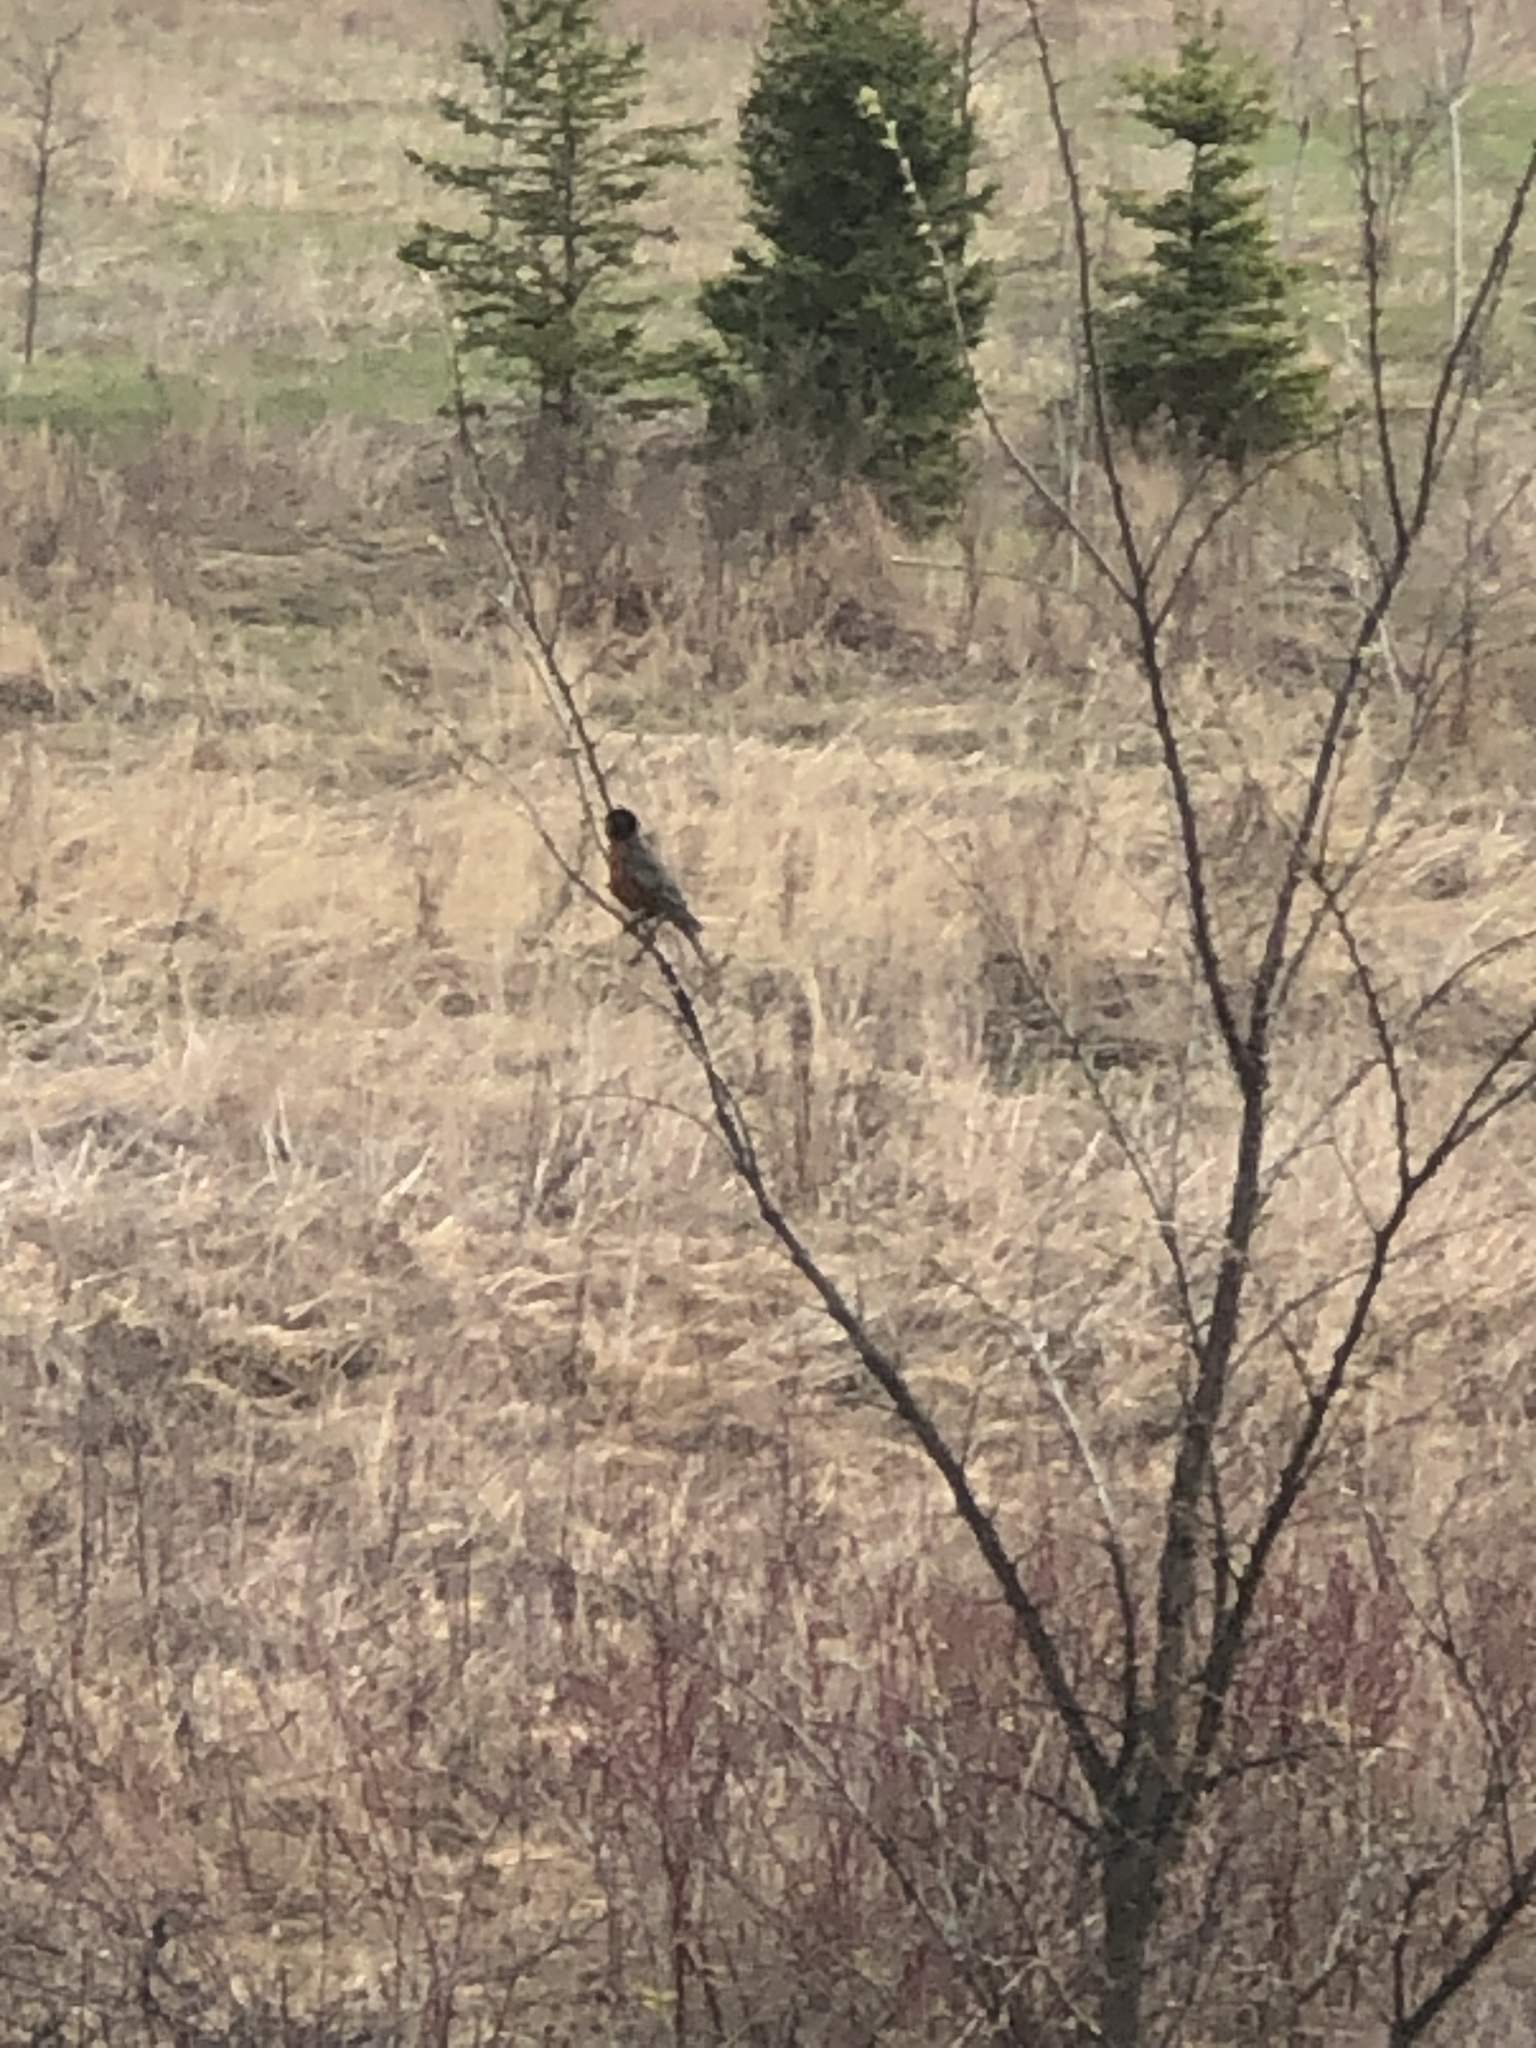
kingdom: Animalia
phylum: Chordata
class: Aves
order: Passeriformes
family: Turdidae
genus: Turdus
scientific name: Turdus migratorius
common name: American robin
